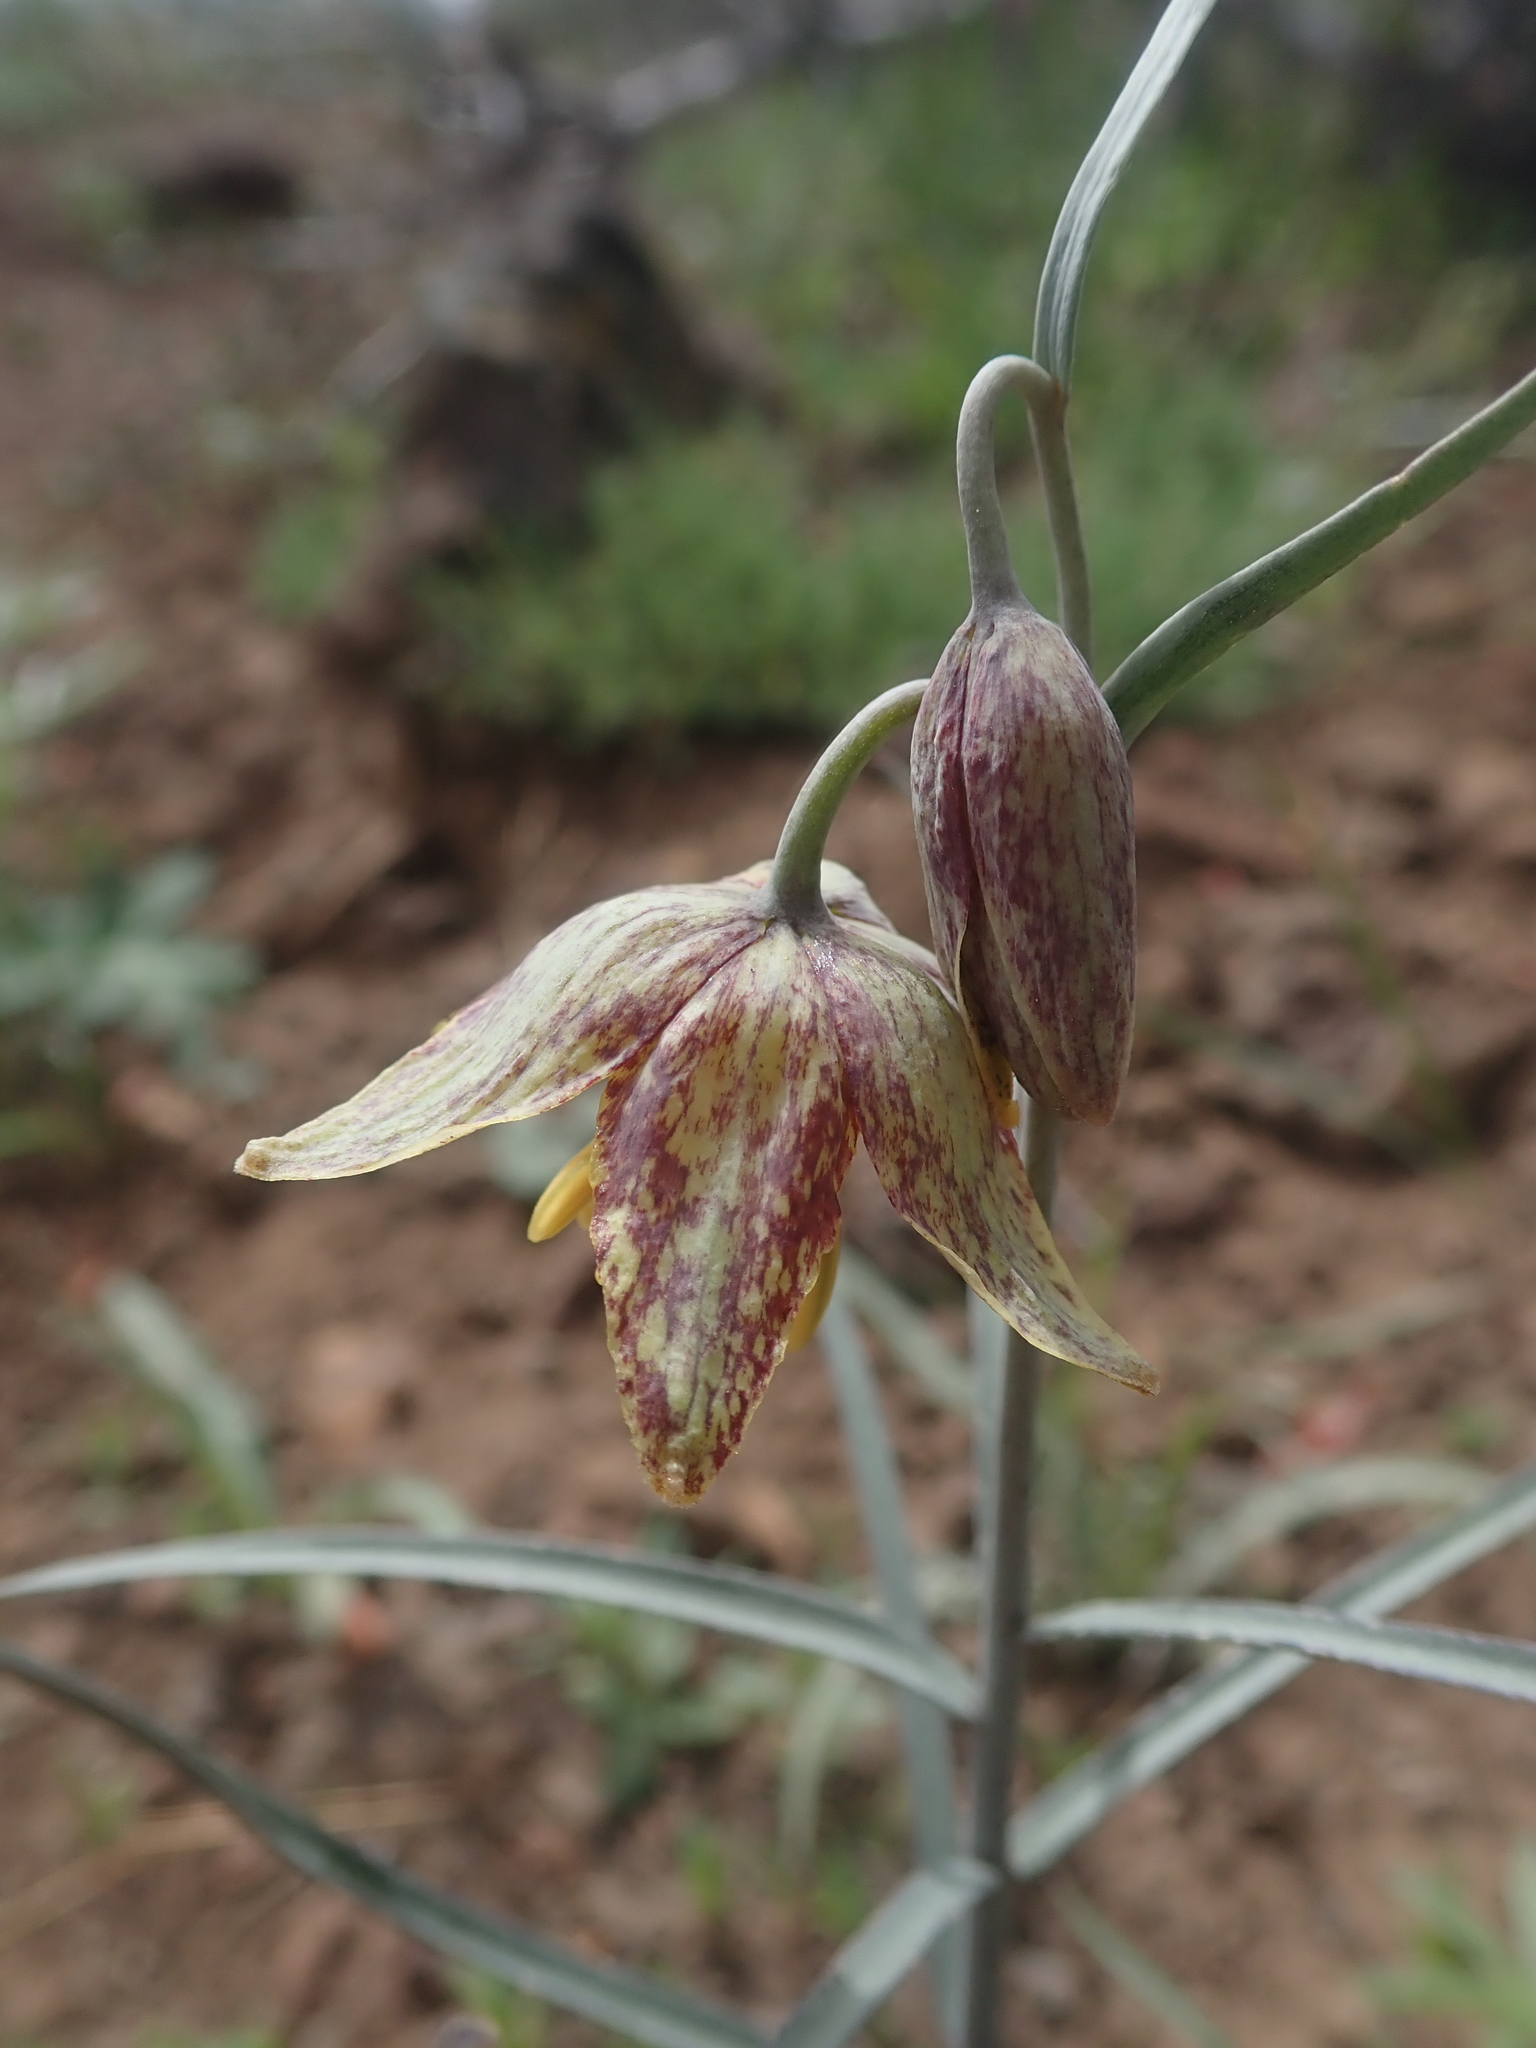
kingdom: Plantae
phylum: Tracheophyta
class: Liliopsida
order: Liliales
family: Liliaceae
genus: Fritillaria
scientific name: Fritillaria atropurpurea
